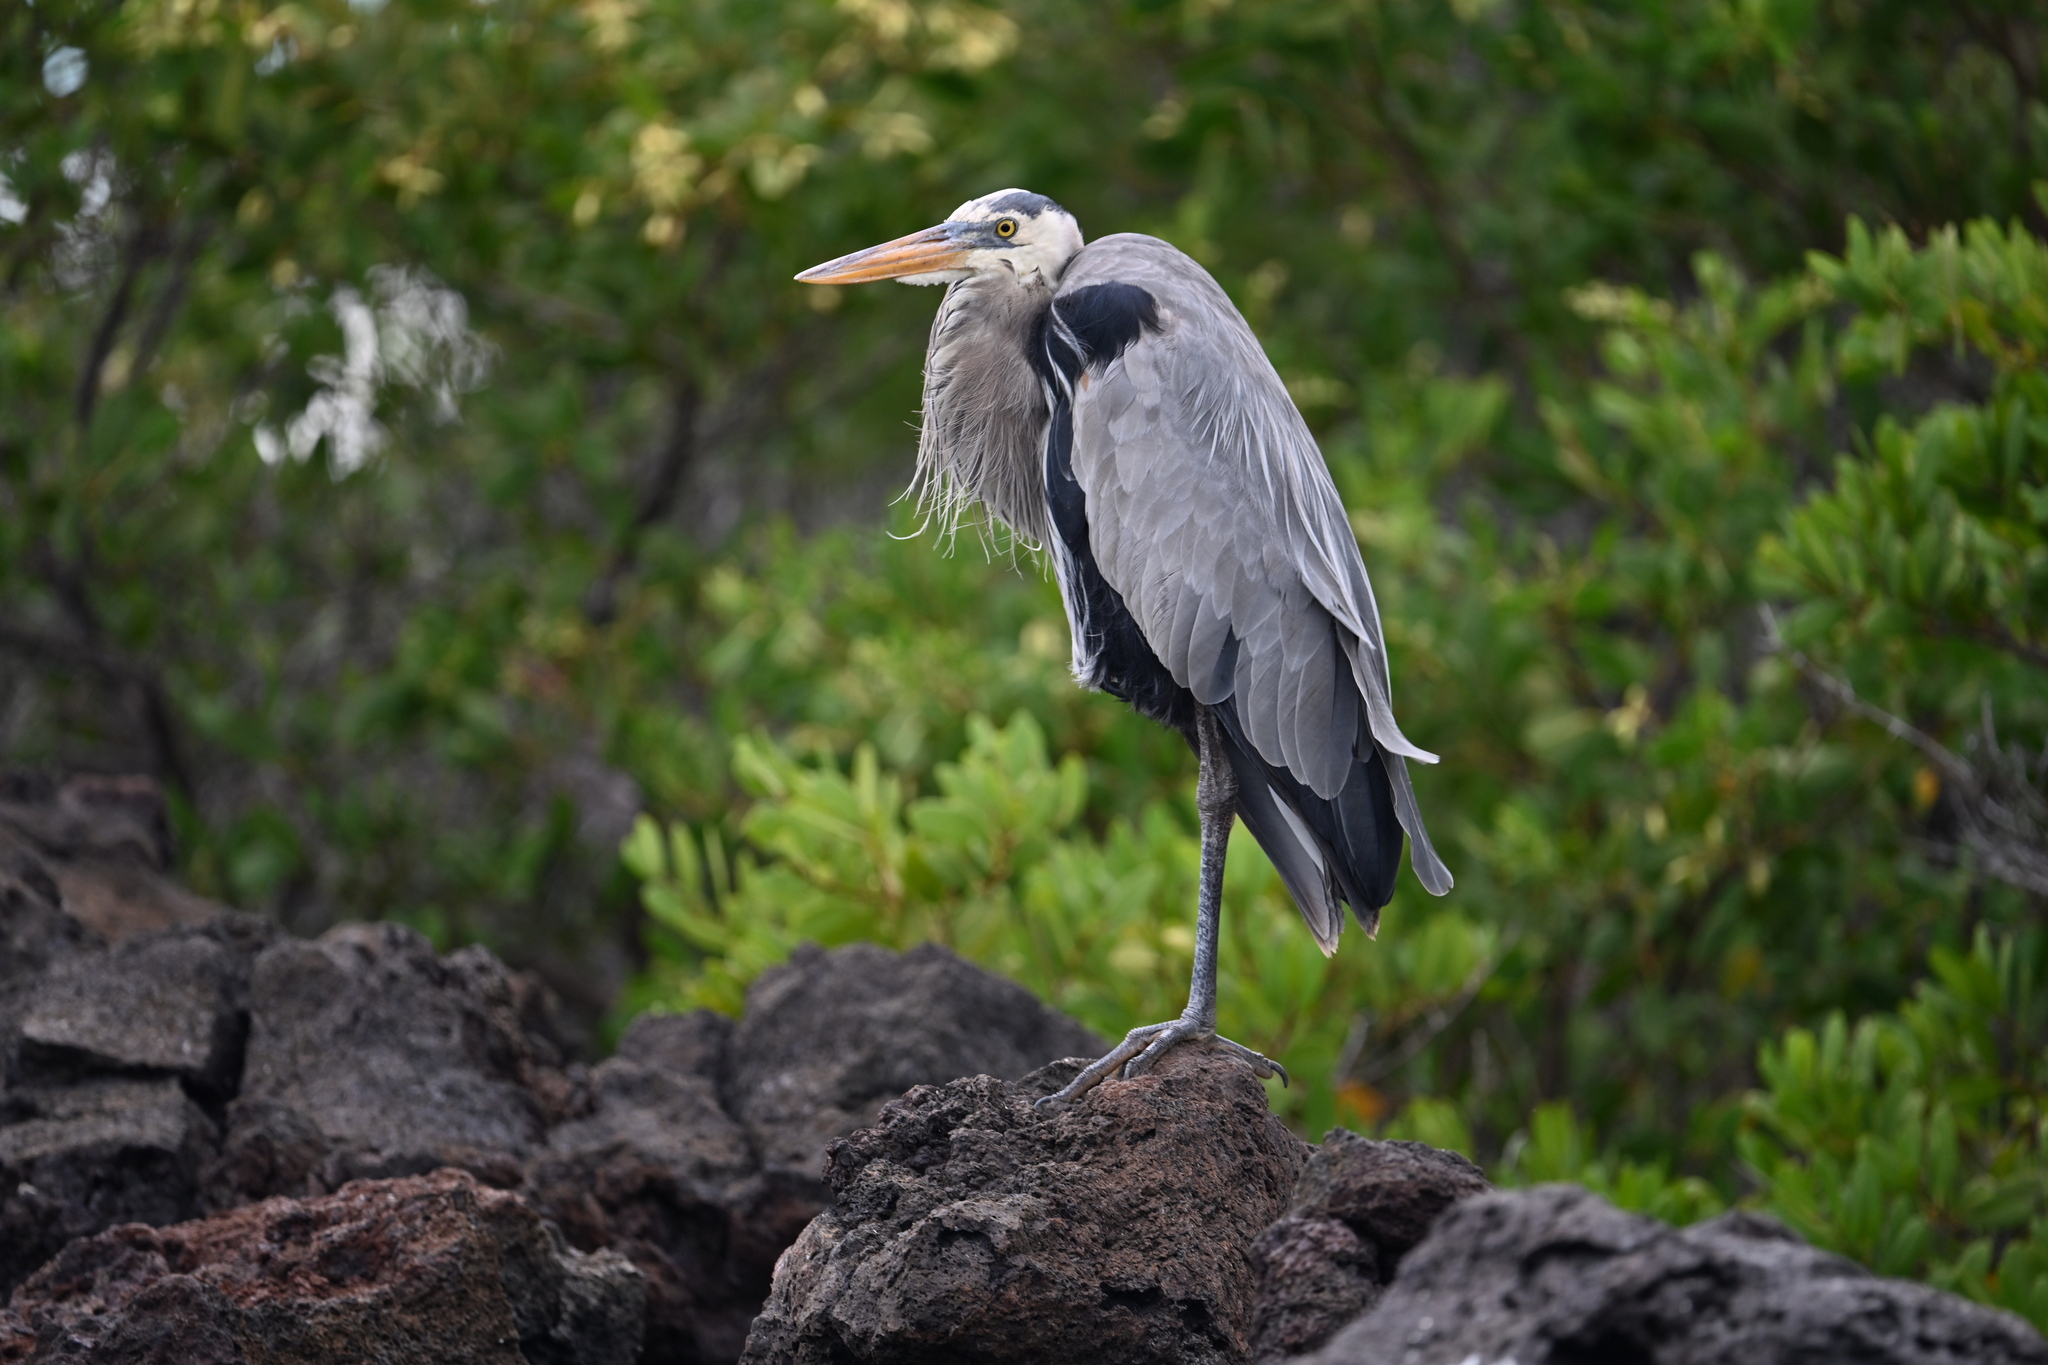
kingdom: Animalia
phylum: Chordata
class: Aves
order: Pelecaniformes
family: Ardeidae
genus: Ardea
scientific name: Ardea herodias
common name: Great blue heron
